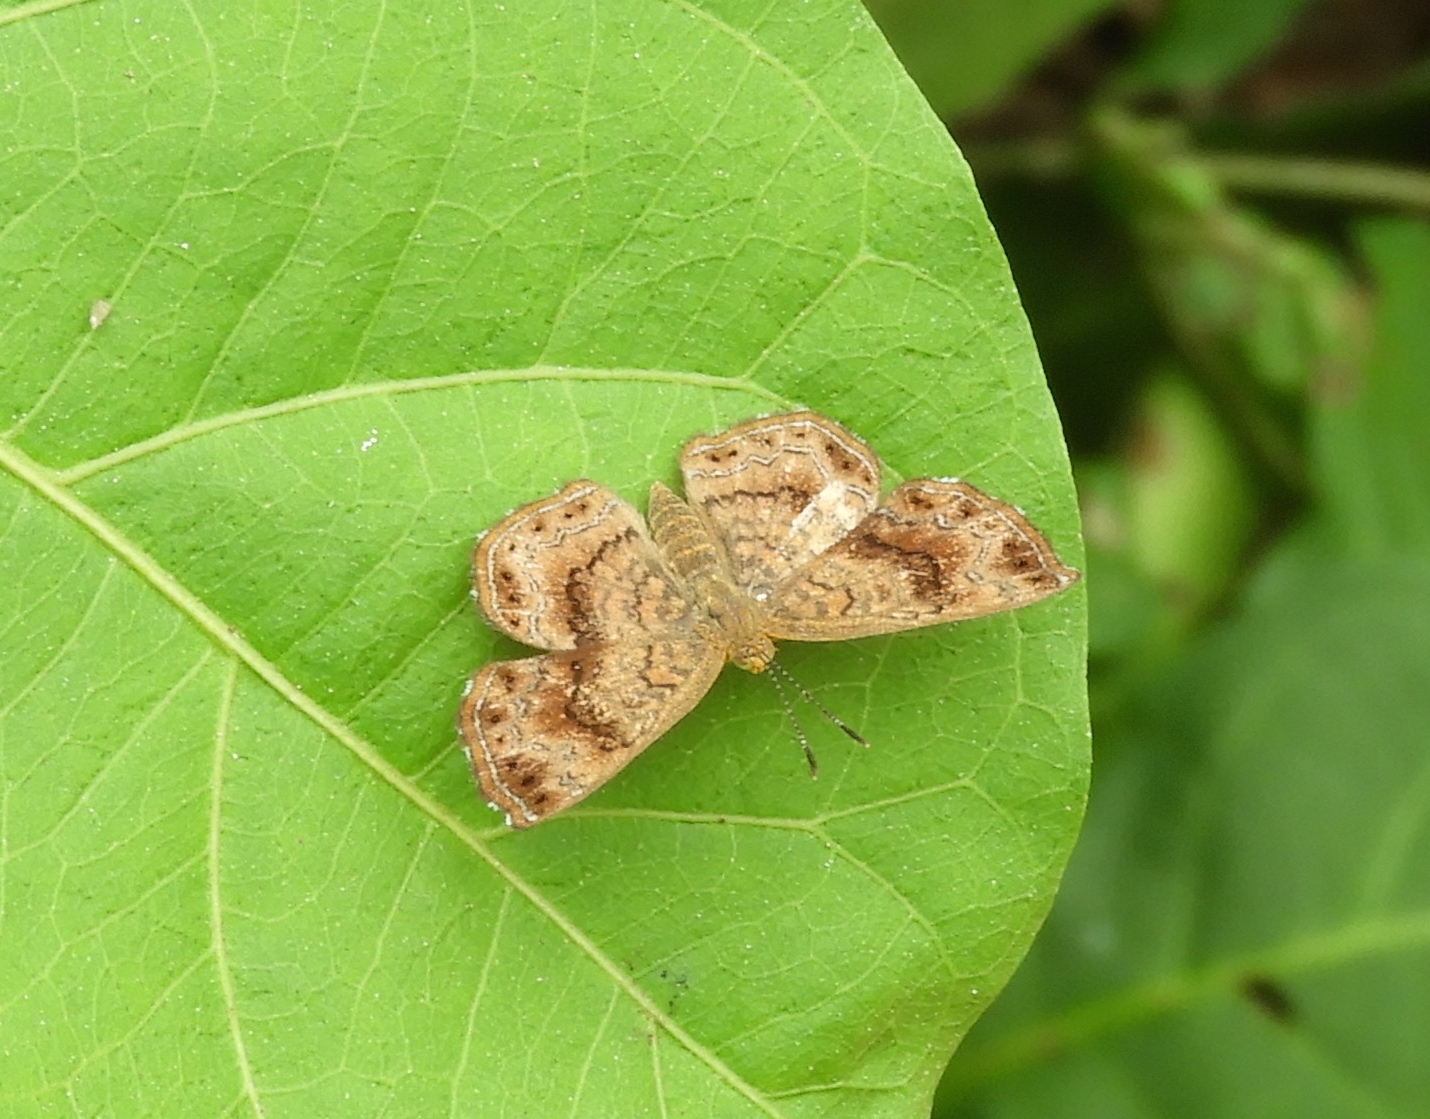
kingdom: Animalia
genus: Calephelis
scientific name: Calephelis
